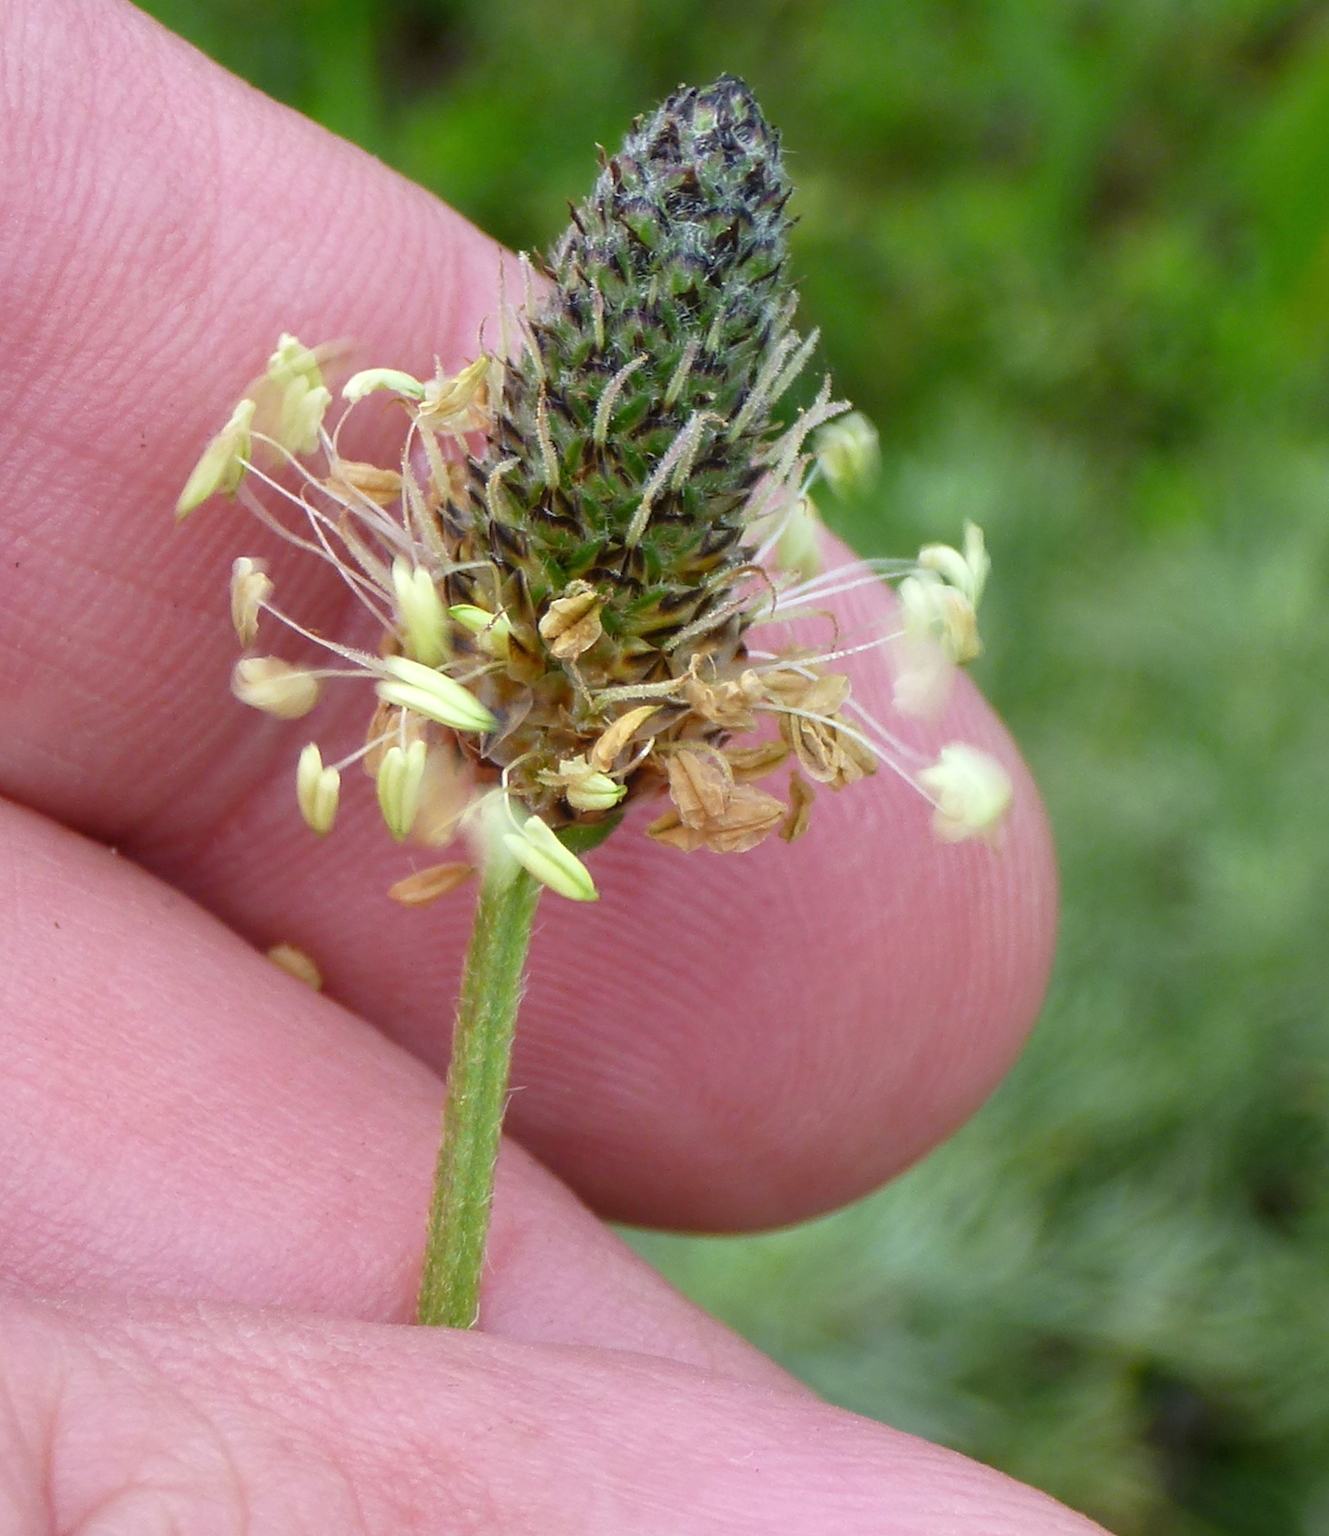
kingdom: Plantae
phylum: Tracheophyta
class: Magnoliopsida
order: Lamiales
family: Plantaginaceae
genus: Plantago
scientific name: Plantago lanceolata
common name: Ribwort plantain
